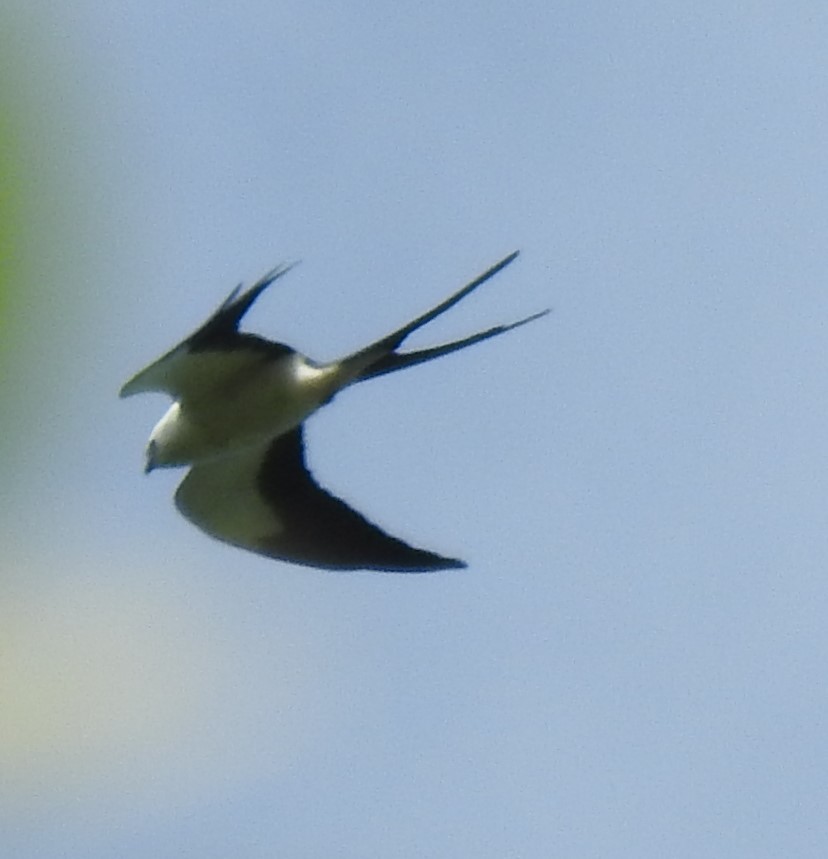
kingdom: Animalia
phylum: Chordata
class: Aves
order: Accipitriformes
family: Accipitridae
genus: Elanoides
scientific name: Elanoides forficatus
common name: Swallow-tailed kite
